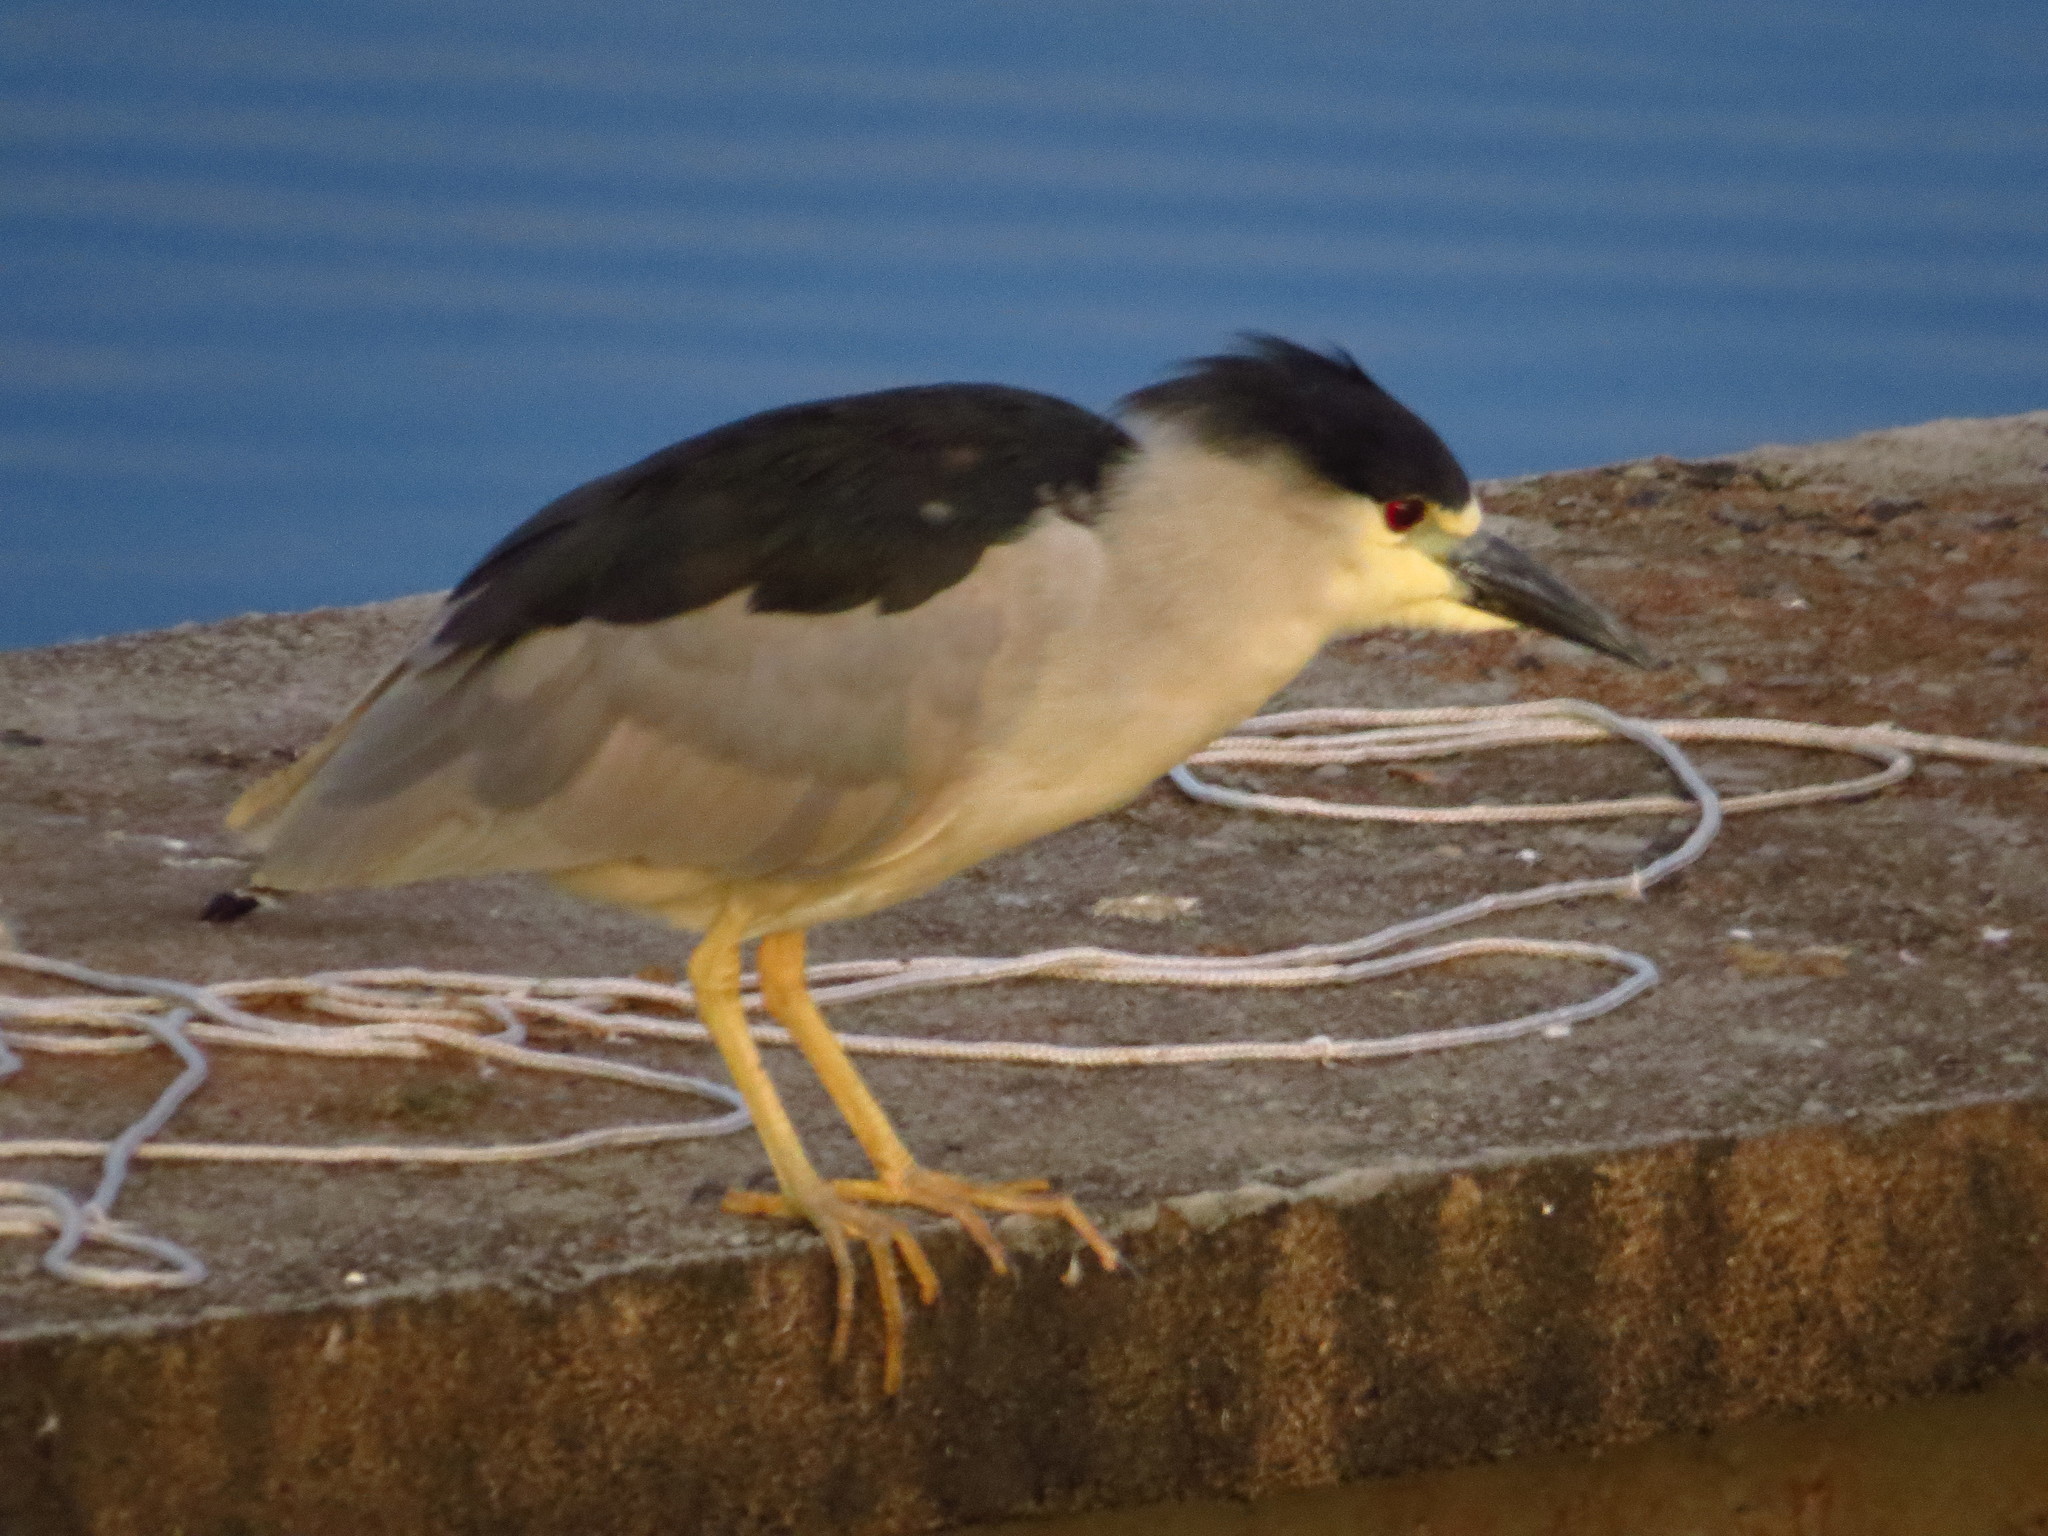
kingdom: Animalia
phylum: Chordata
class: Aves
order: Pelecaniformes
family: Ardeidae
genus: Nycticorax
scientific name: Nycticorax nycticorax
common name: Black-crowned night heron
